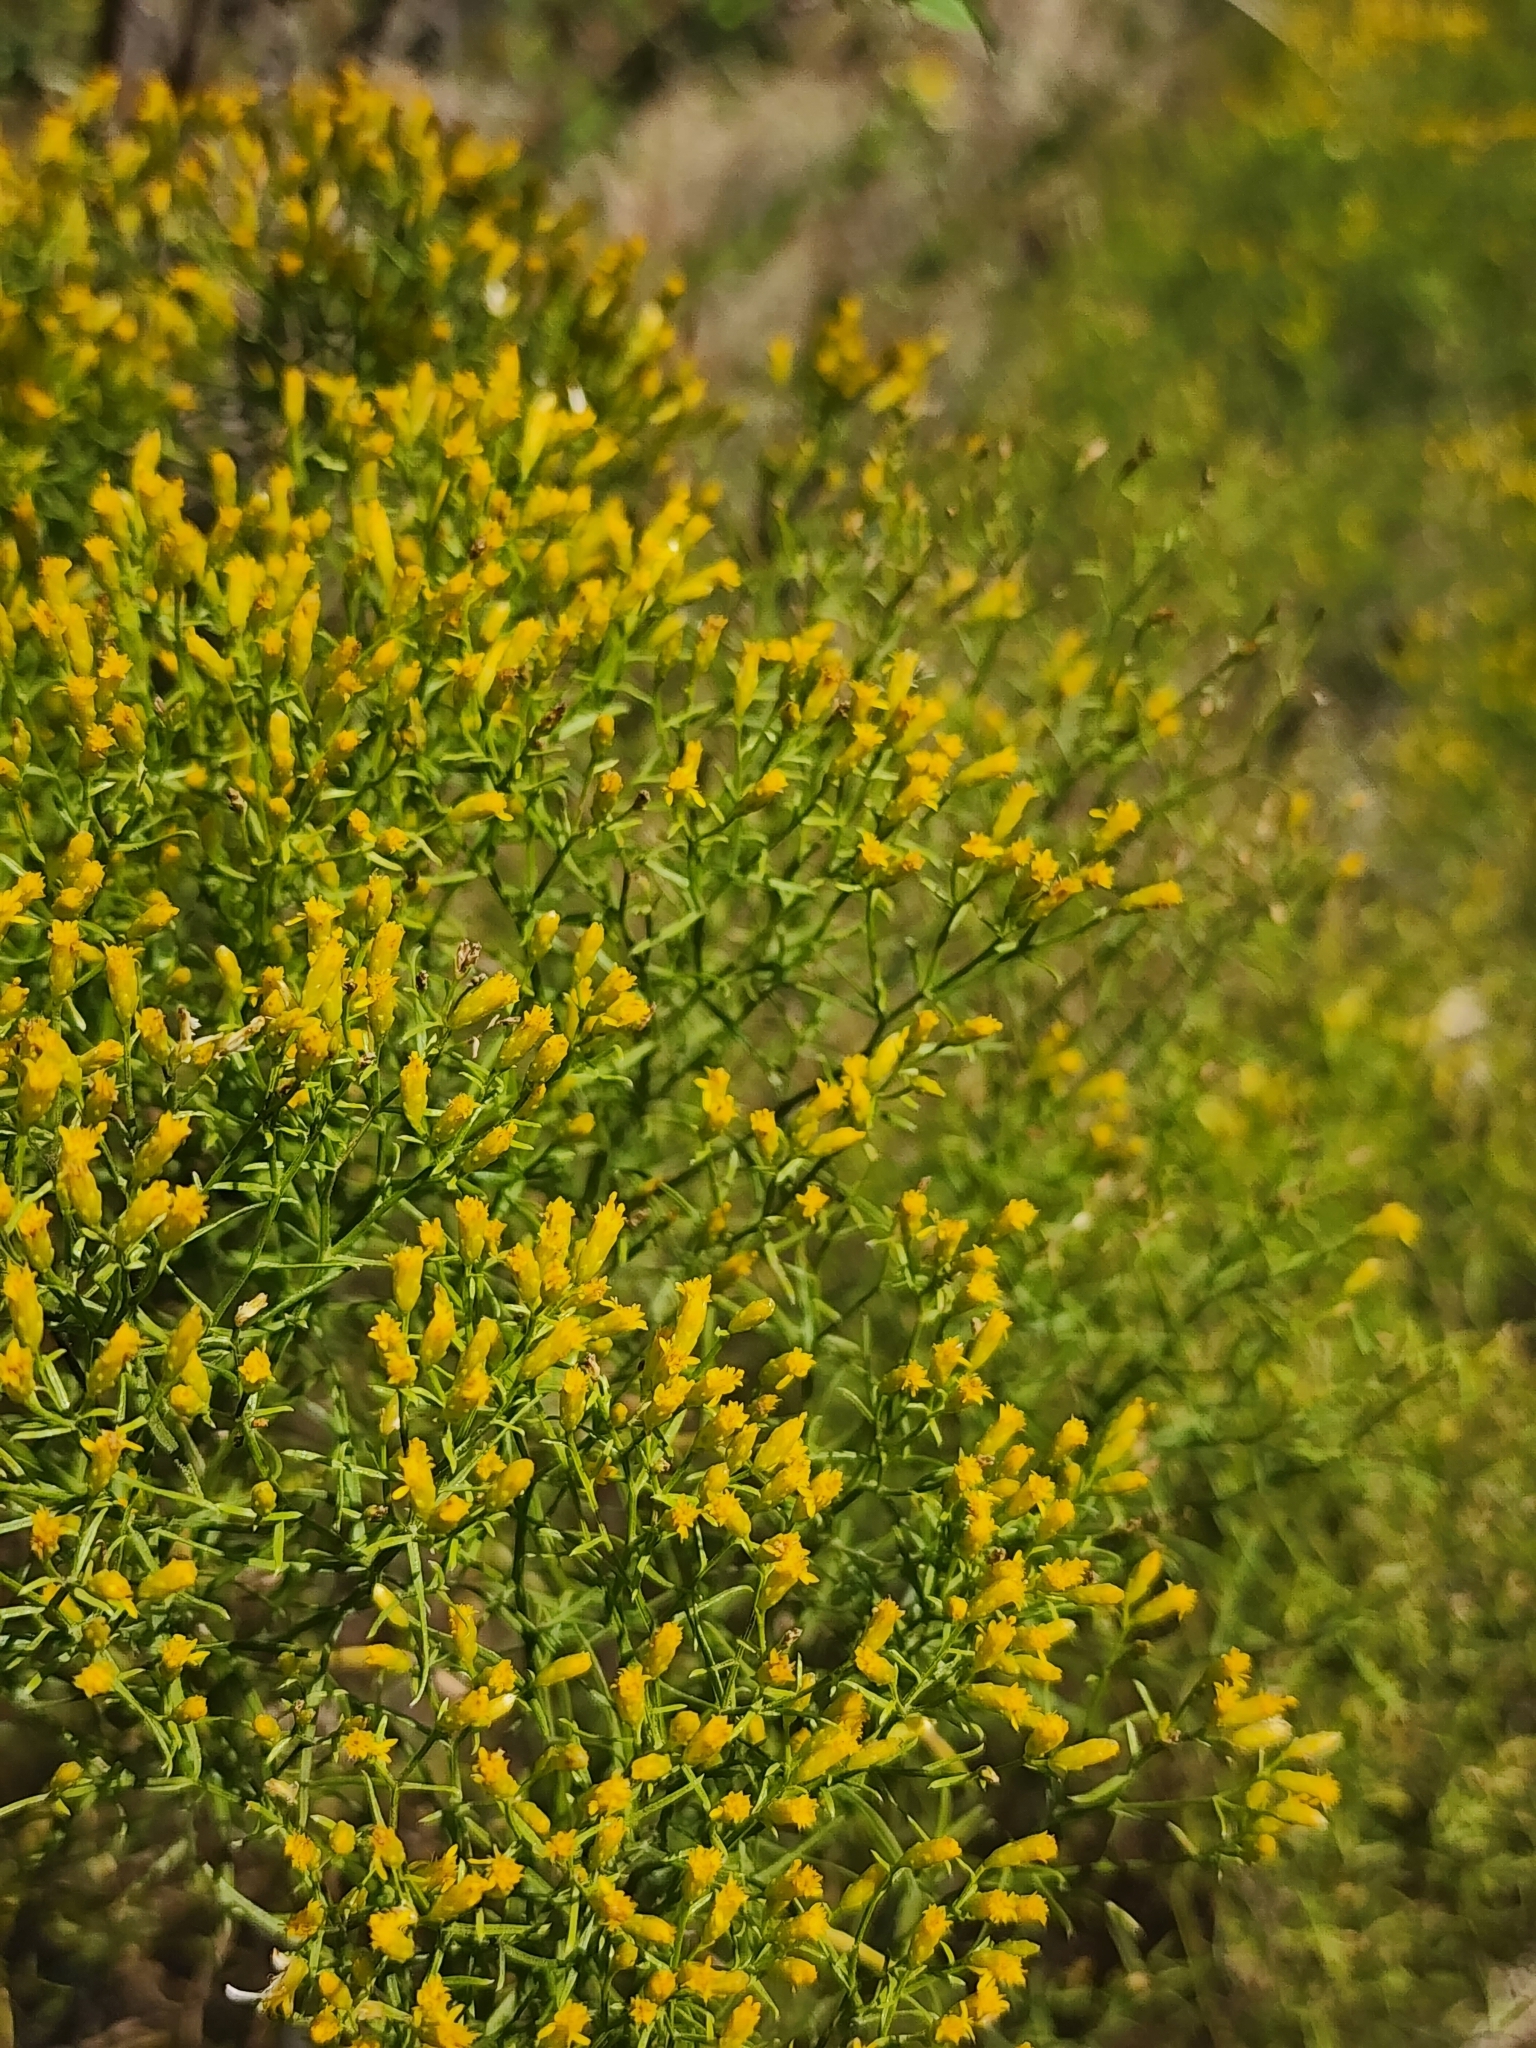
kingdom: Plantae
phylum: Tracheophyta
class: Magnoliopsida
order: Asterales
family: Asteraceae
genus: Euthamia
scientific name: Euthamia caroliniana
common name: Coastal plain goldentop
